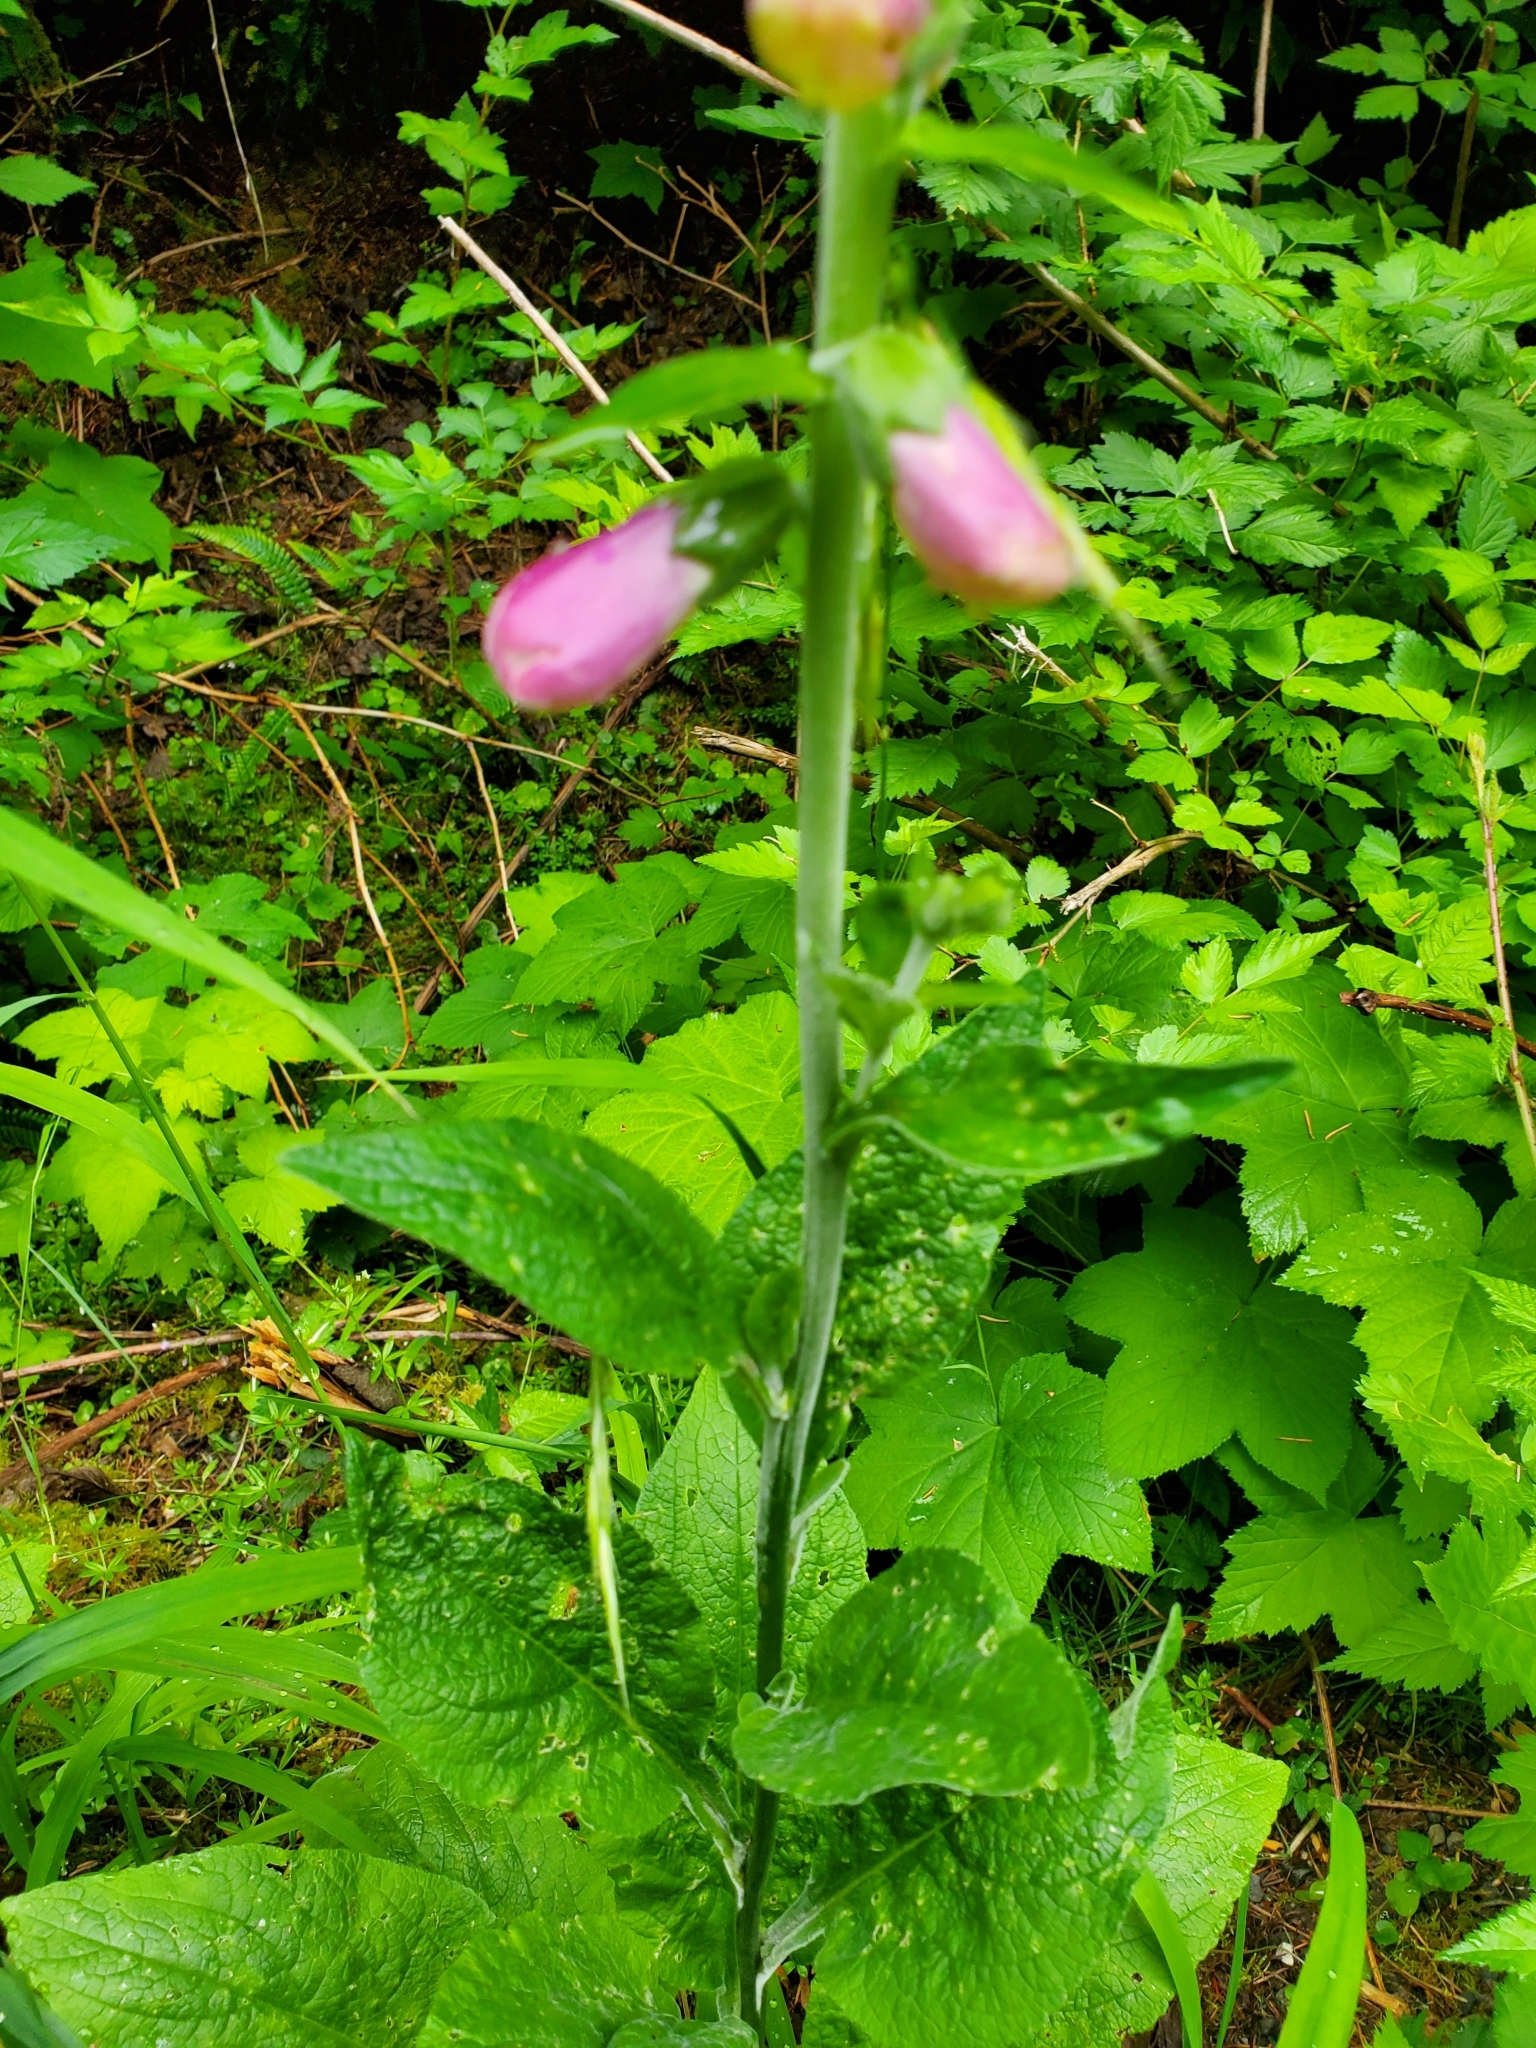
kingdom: Plantae
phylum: Tracheophyta
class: Magnoliopsida
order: Lamiales
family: Plantaginaceae
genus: Digitalis
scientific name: Digitalis purpurea
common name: Foxglove
